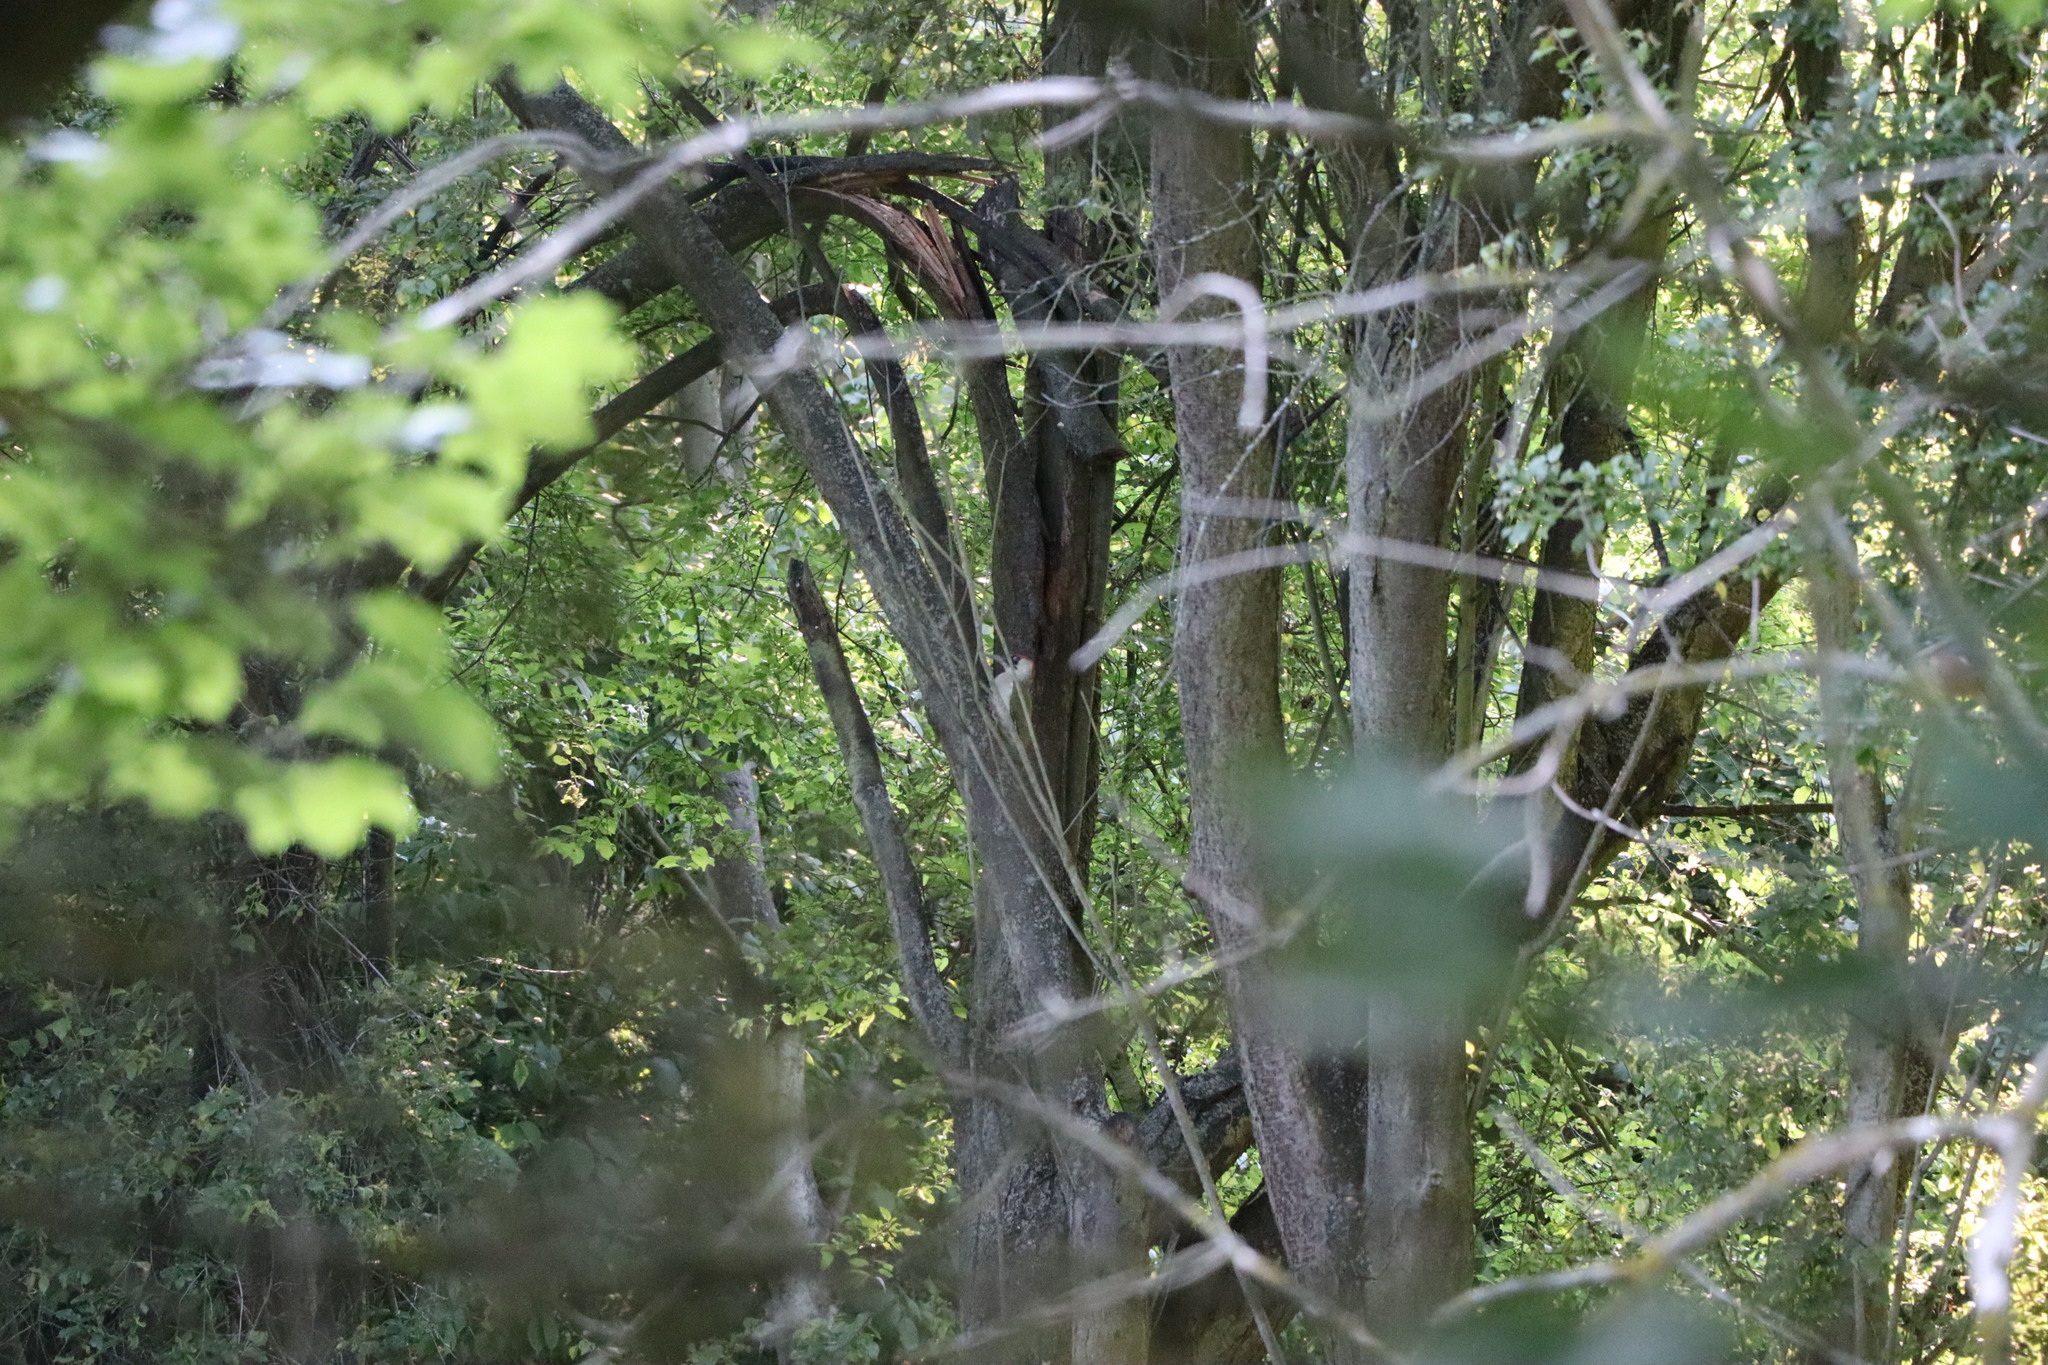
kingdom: Animalia
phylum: Chordata
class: Aves
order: Piciformes
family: Picidae
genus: Picus
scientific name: Picus viridis
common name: European green woodpecker
